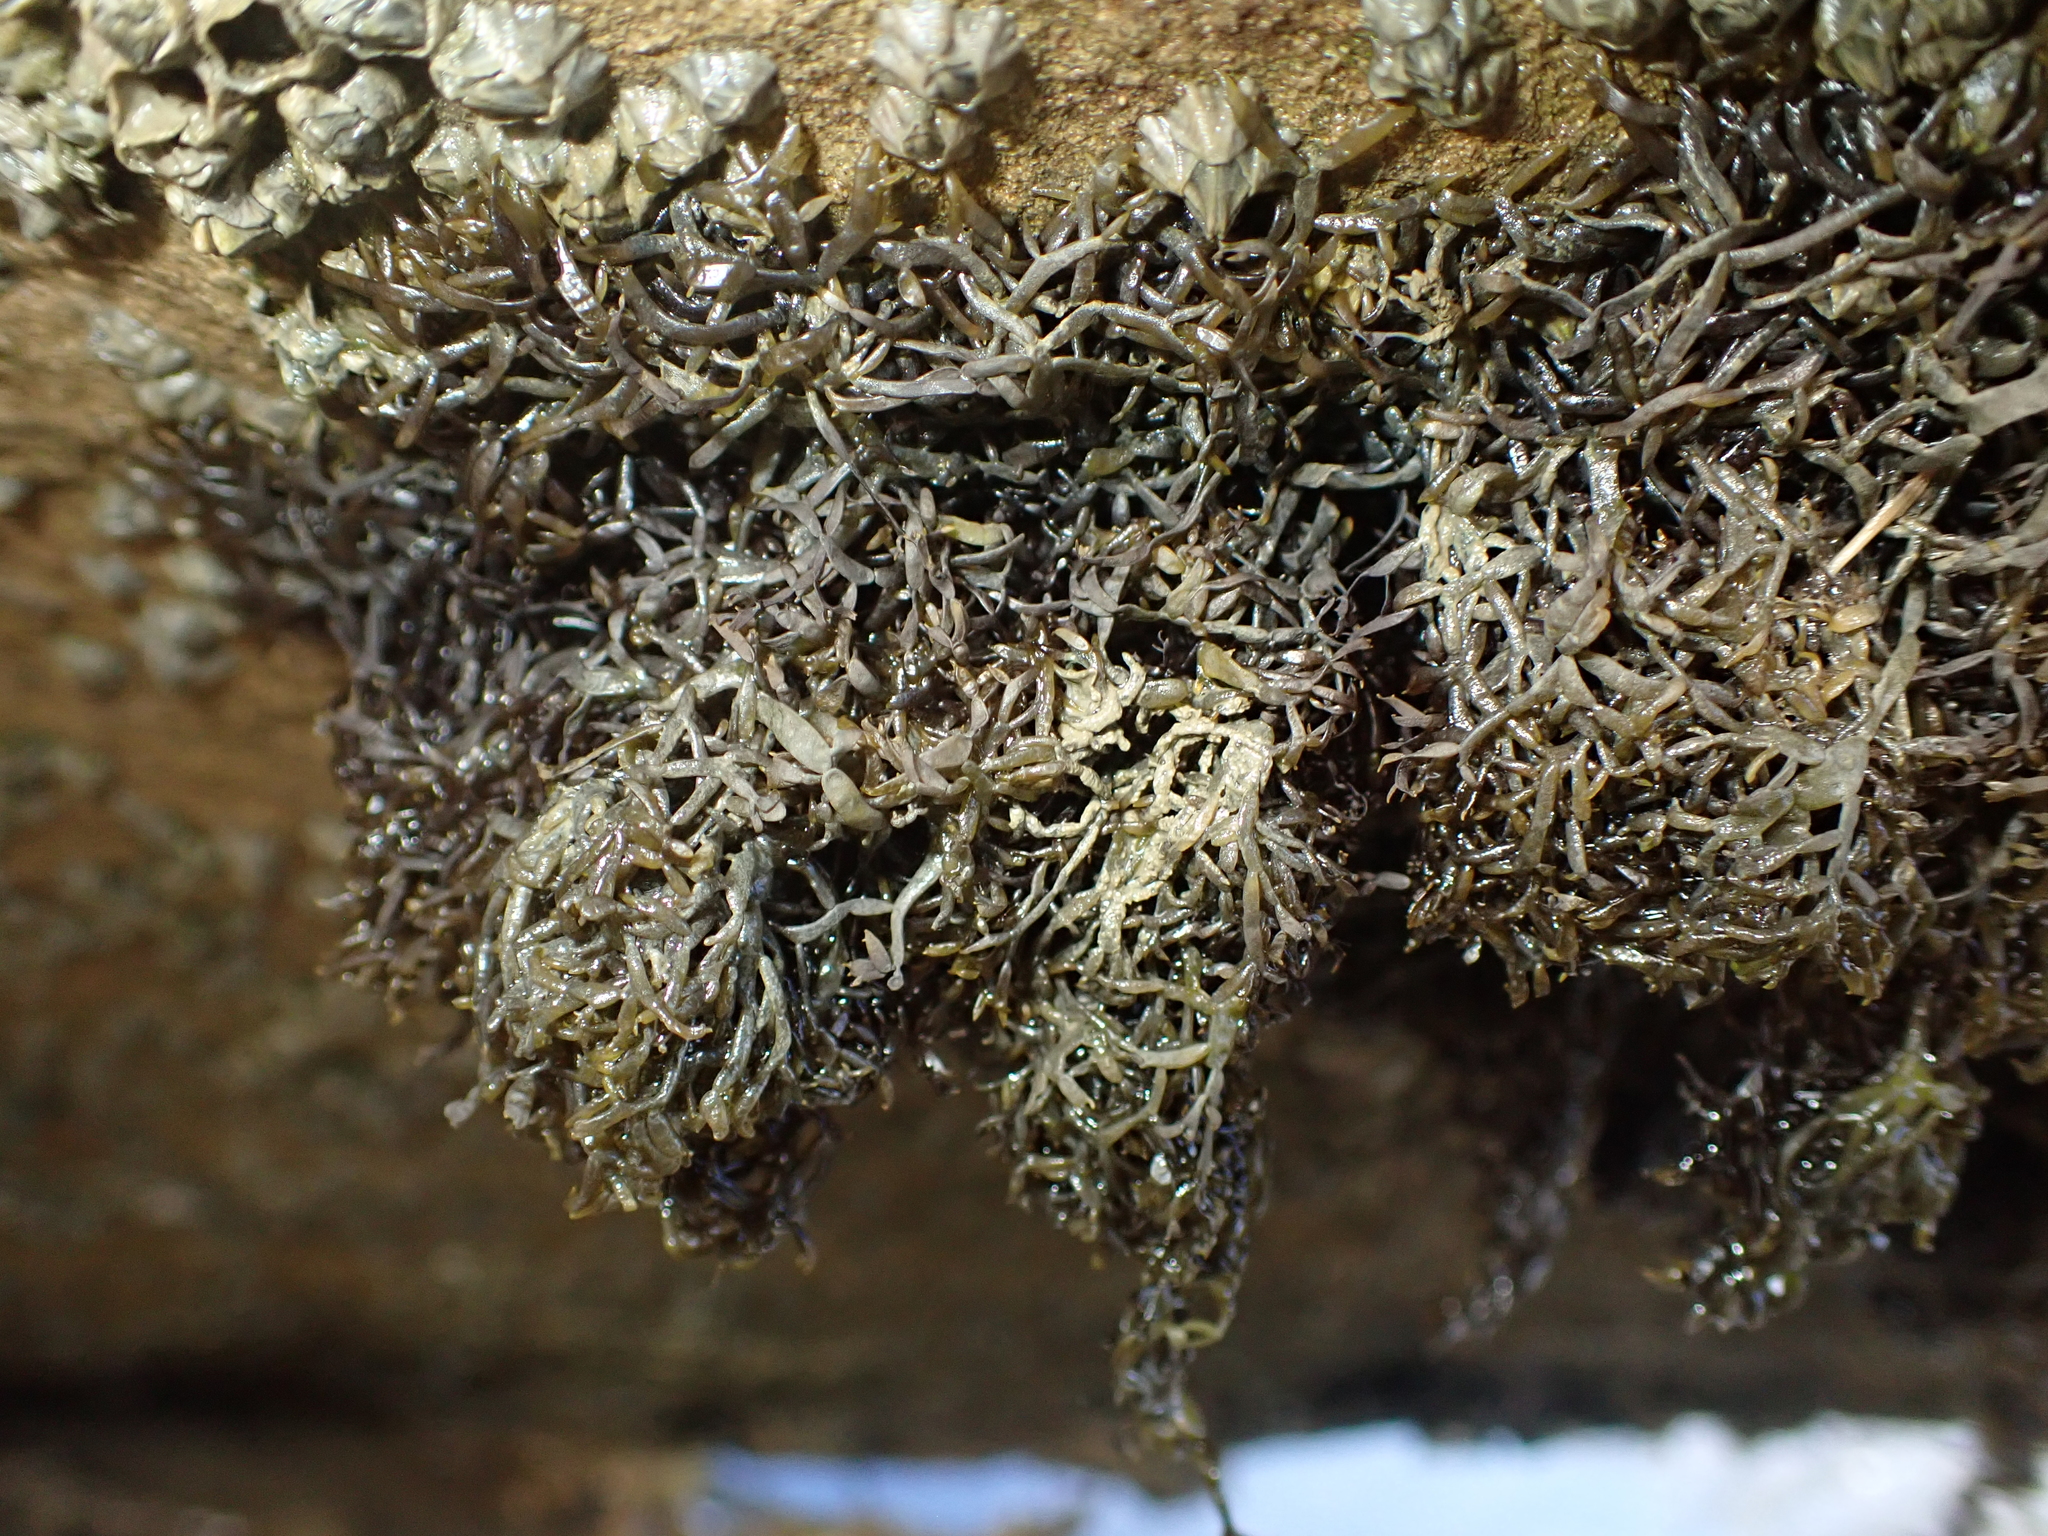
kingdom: Plantae
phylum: Rhodophyta
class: Florideophyceae
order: Gigartinales
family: Caulacanthaceae
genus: Catenella
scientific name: Catenella nipae
